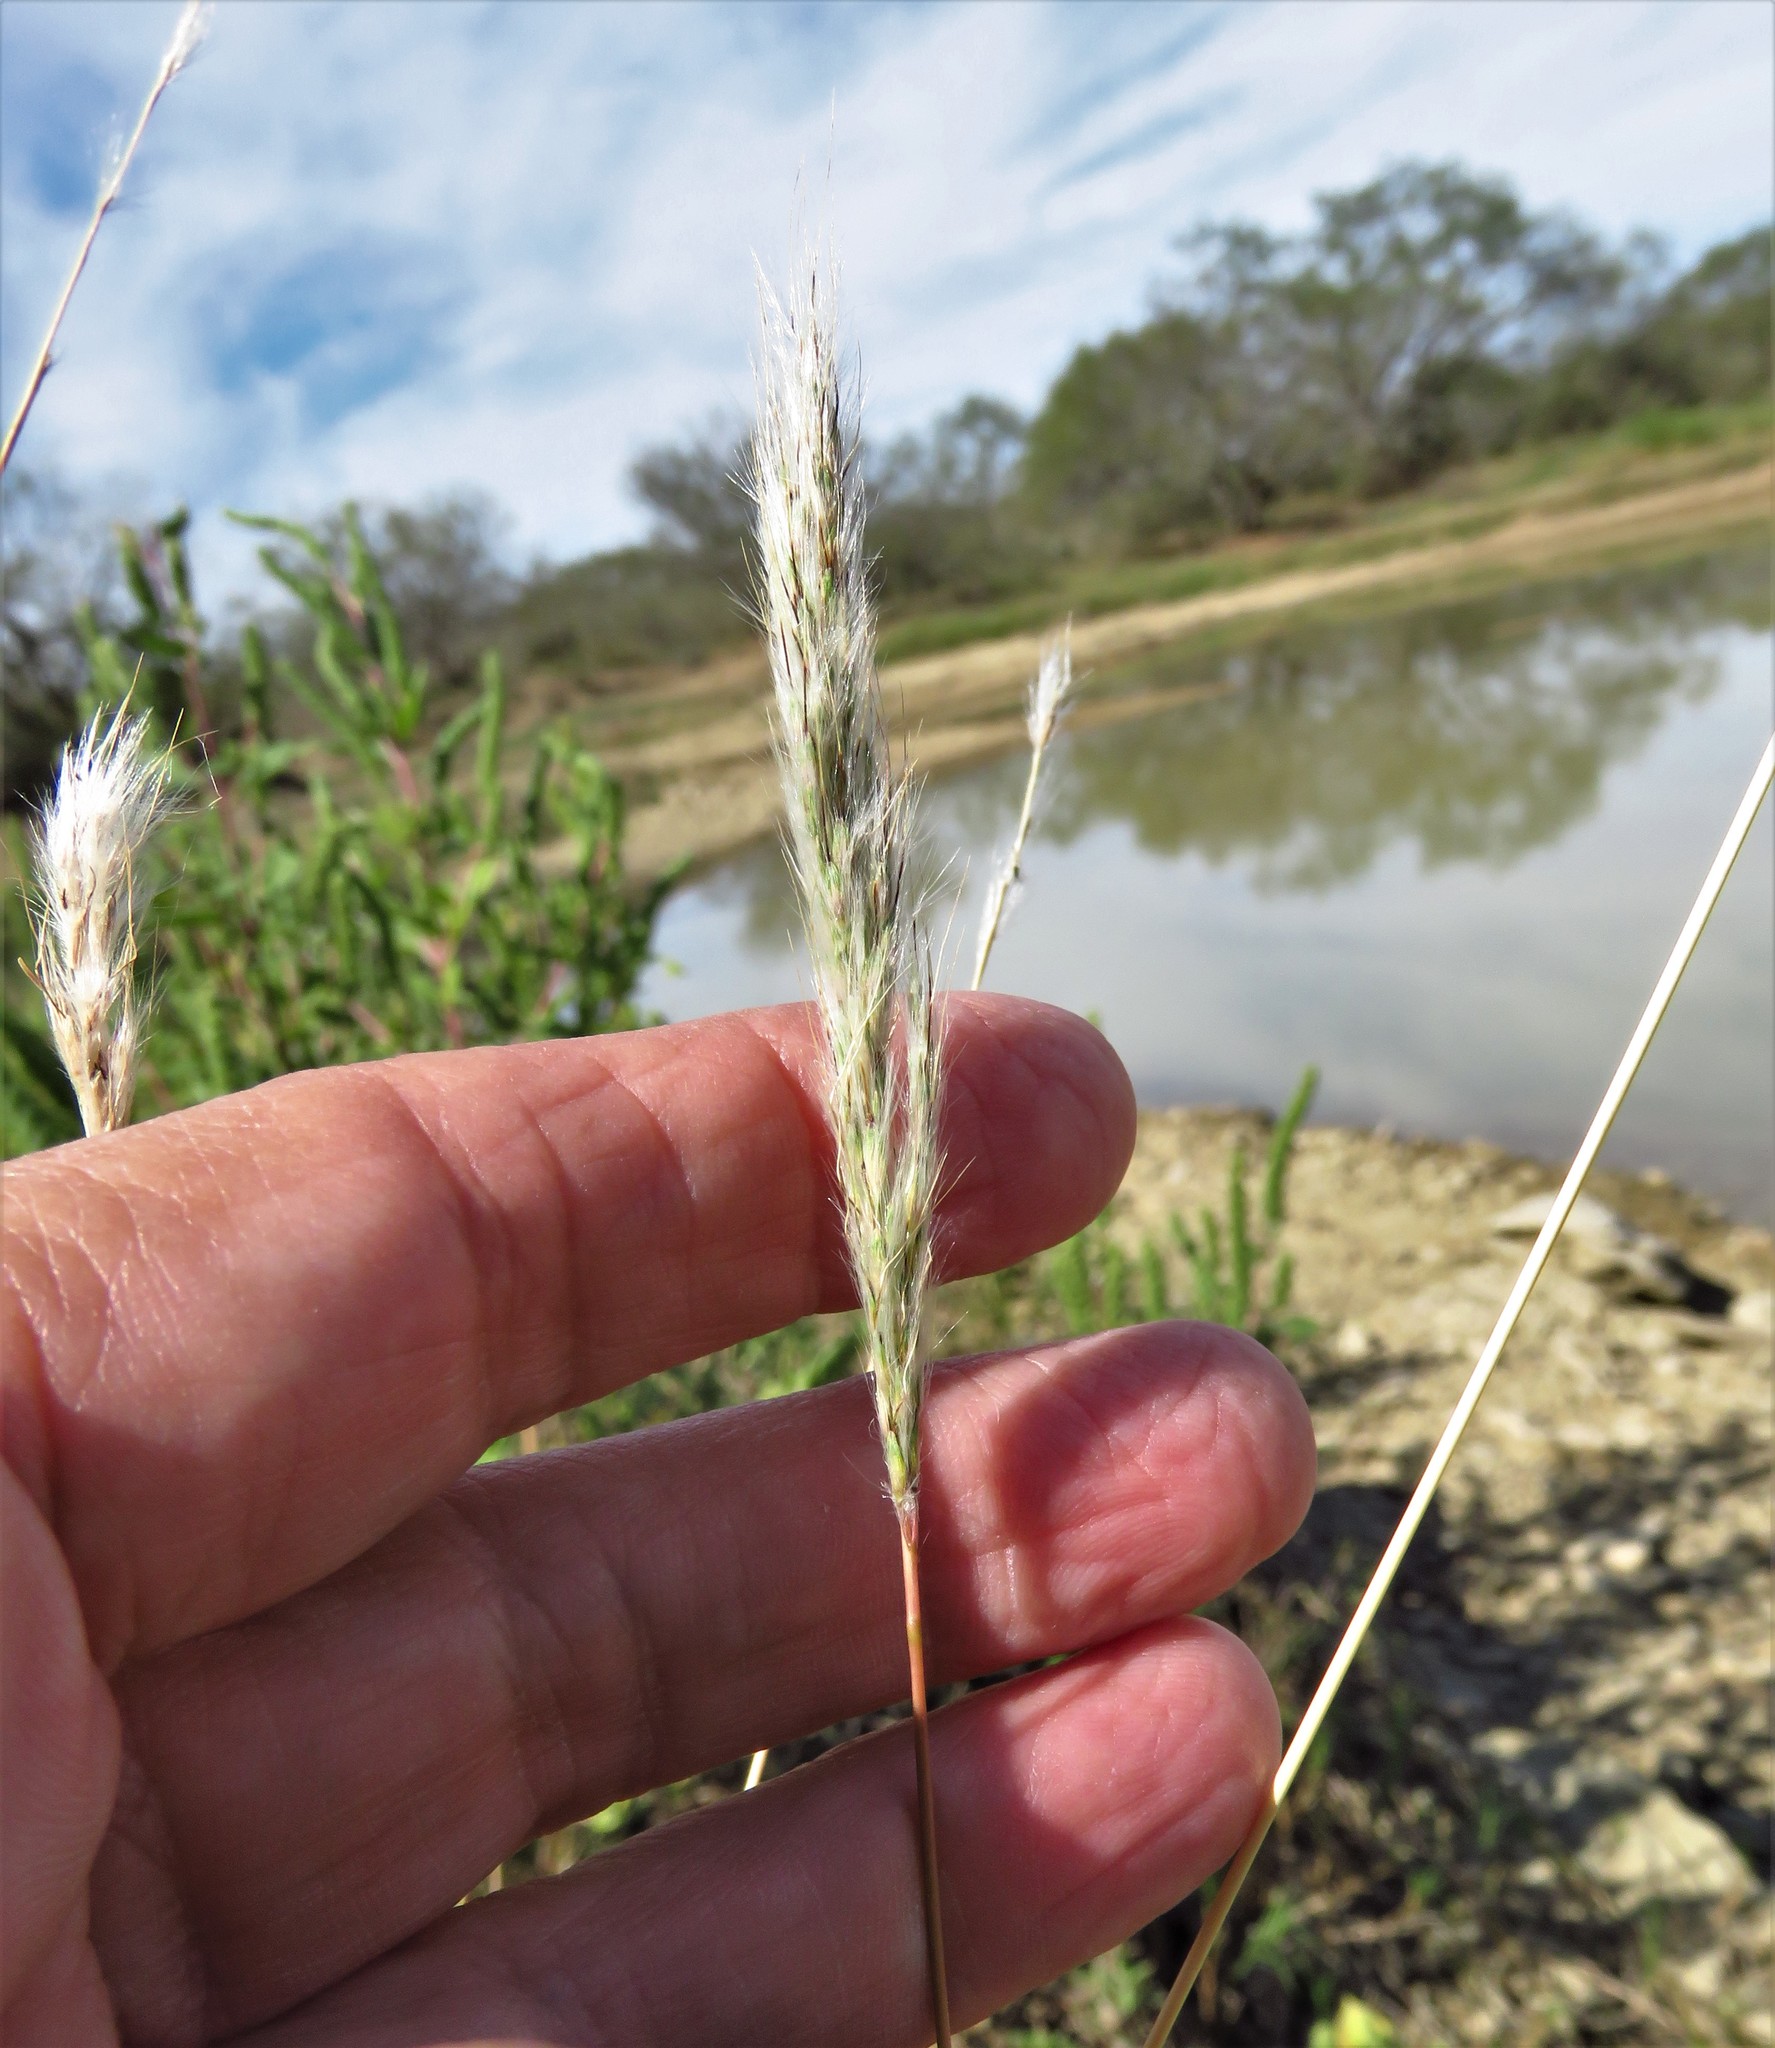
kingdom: Plantae
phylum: Tracheophyta
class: Liliopsida
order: Poales
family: Poaceae
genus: Bothriochloa
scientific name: Bothriochloa barbinodis
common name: Cane bluestem
